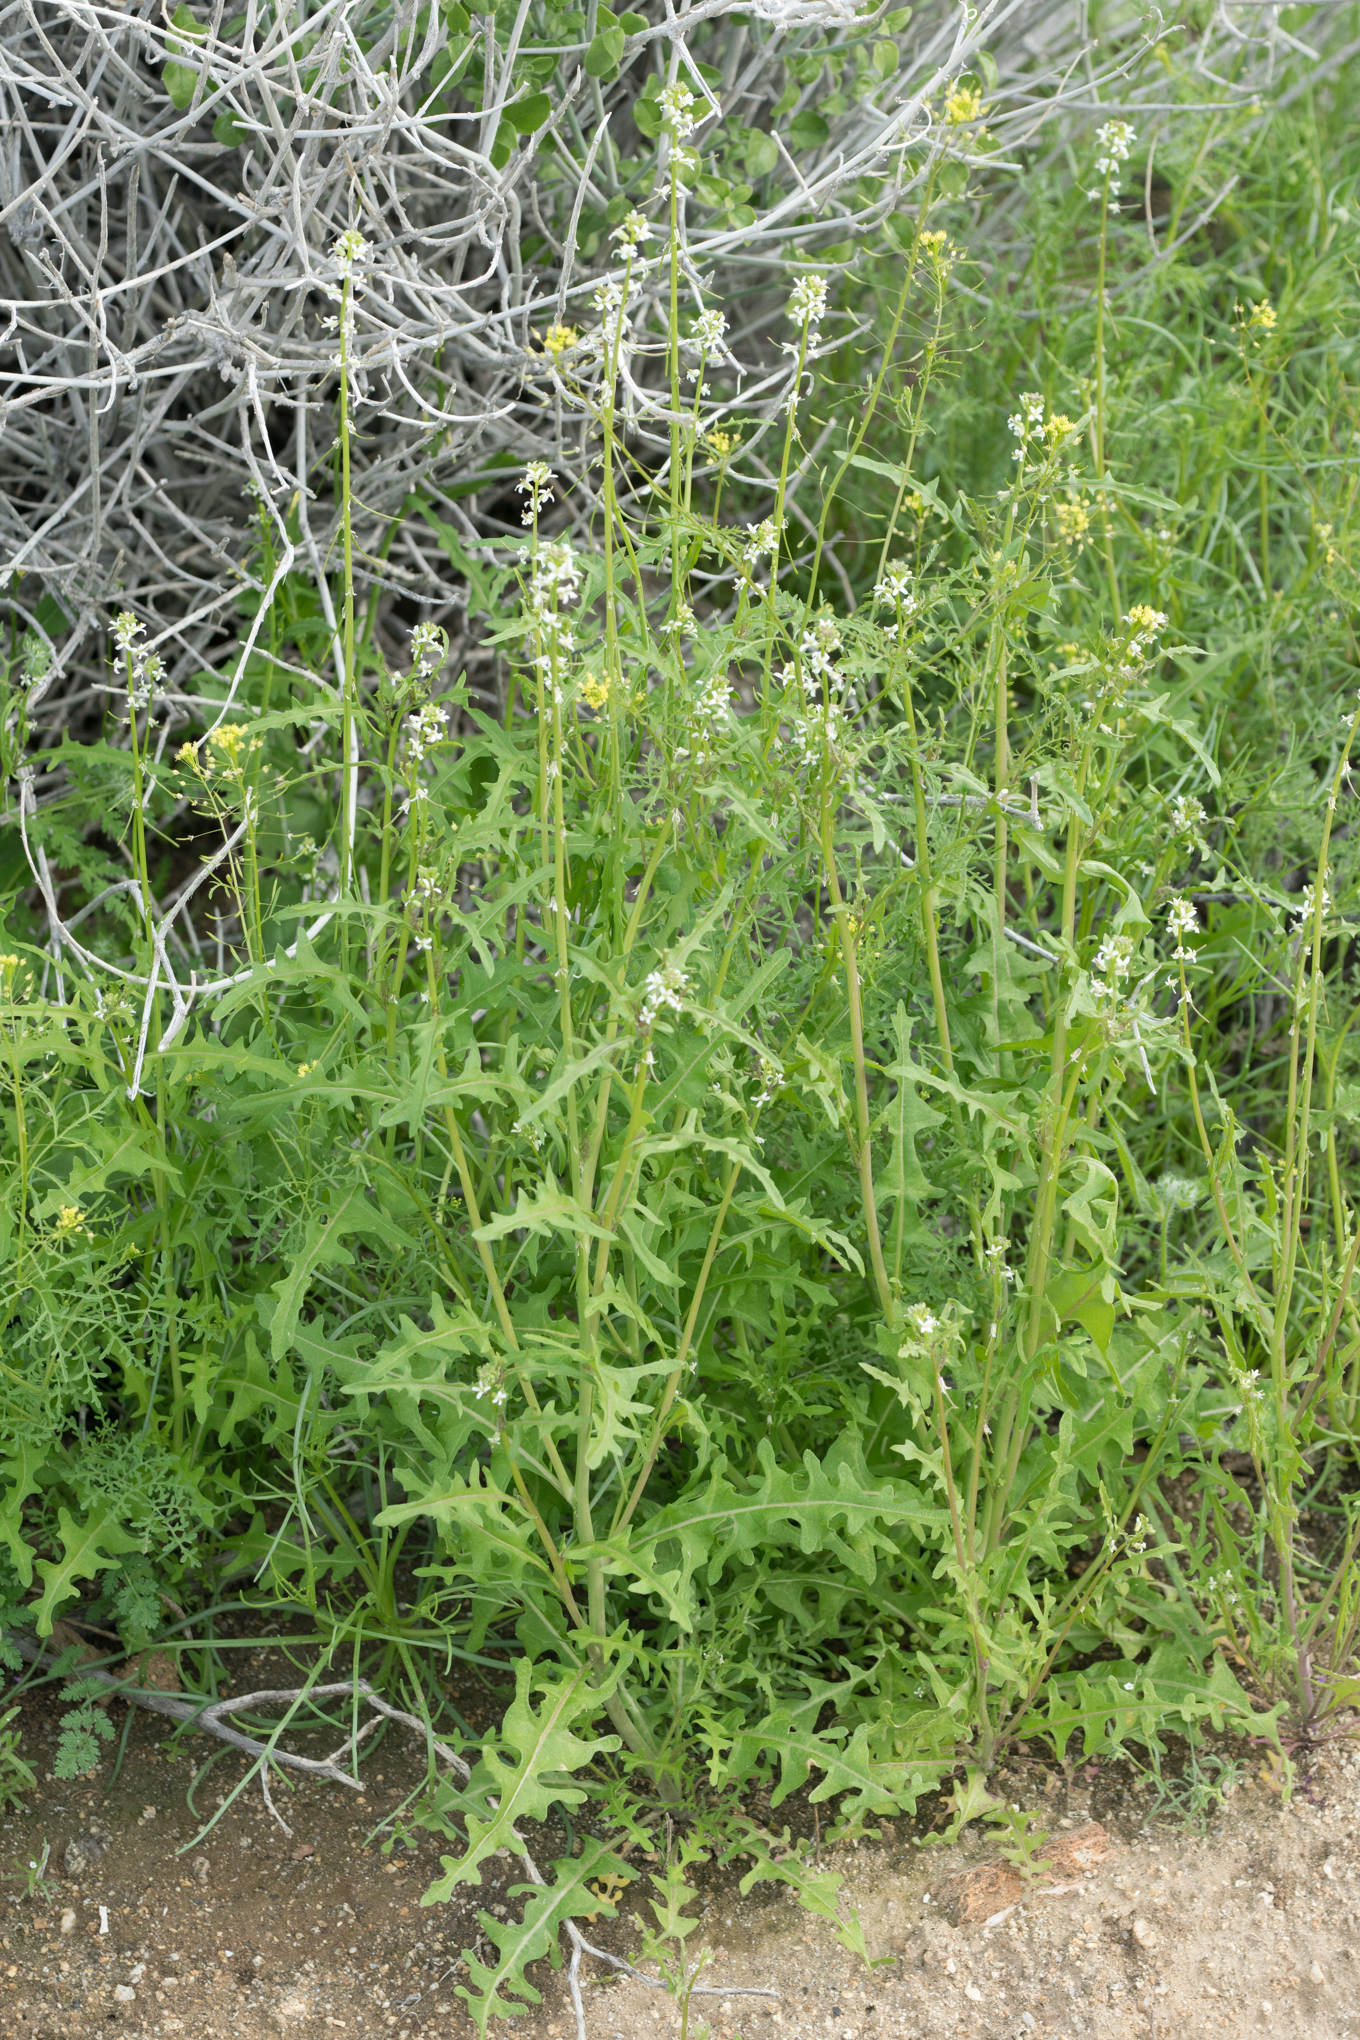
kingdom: Plantae
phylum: Tracheophyta
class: Magnoliopsida
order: Brassicales
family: Brassicaceae
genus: Streptanthus
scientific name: Streptanthus lasiophyllus
